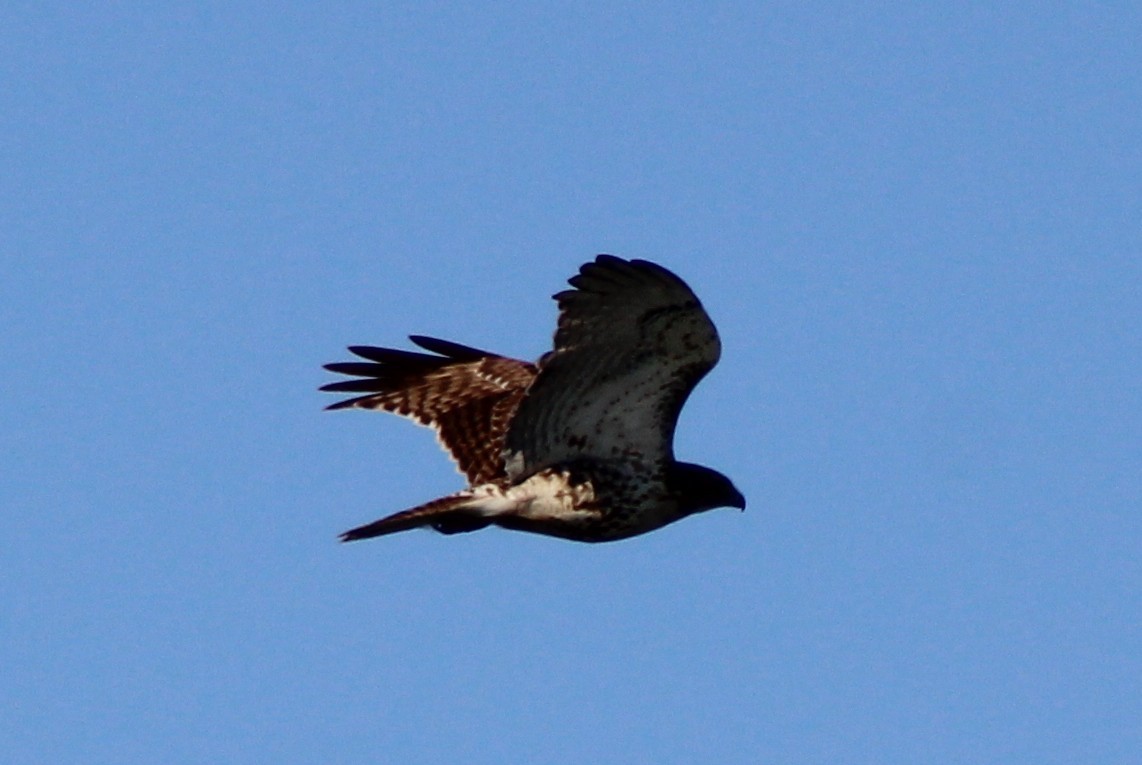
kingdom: Animalia
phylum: Chordata
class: Aves
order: Accipitriformes
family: Accipitridae
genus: Buteo
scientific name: Buteo jamaicensis
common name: Red-tailed hawk
